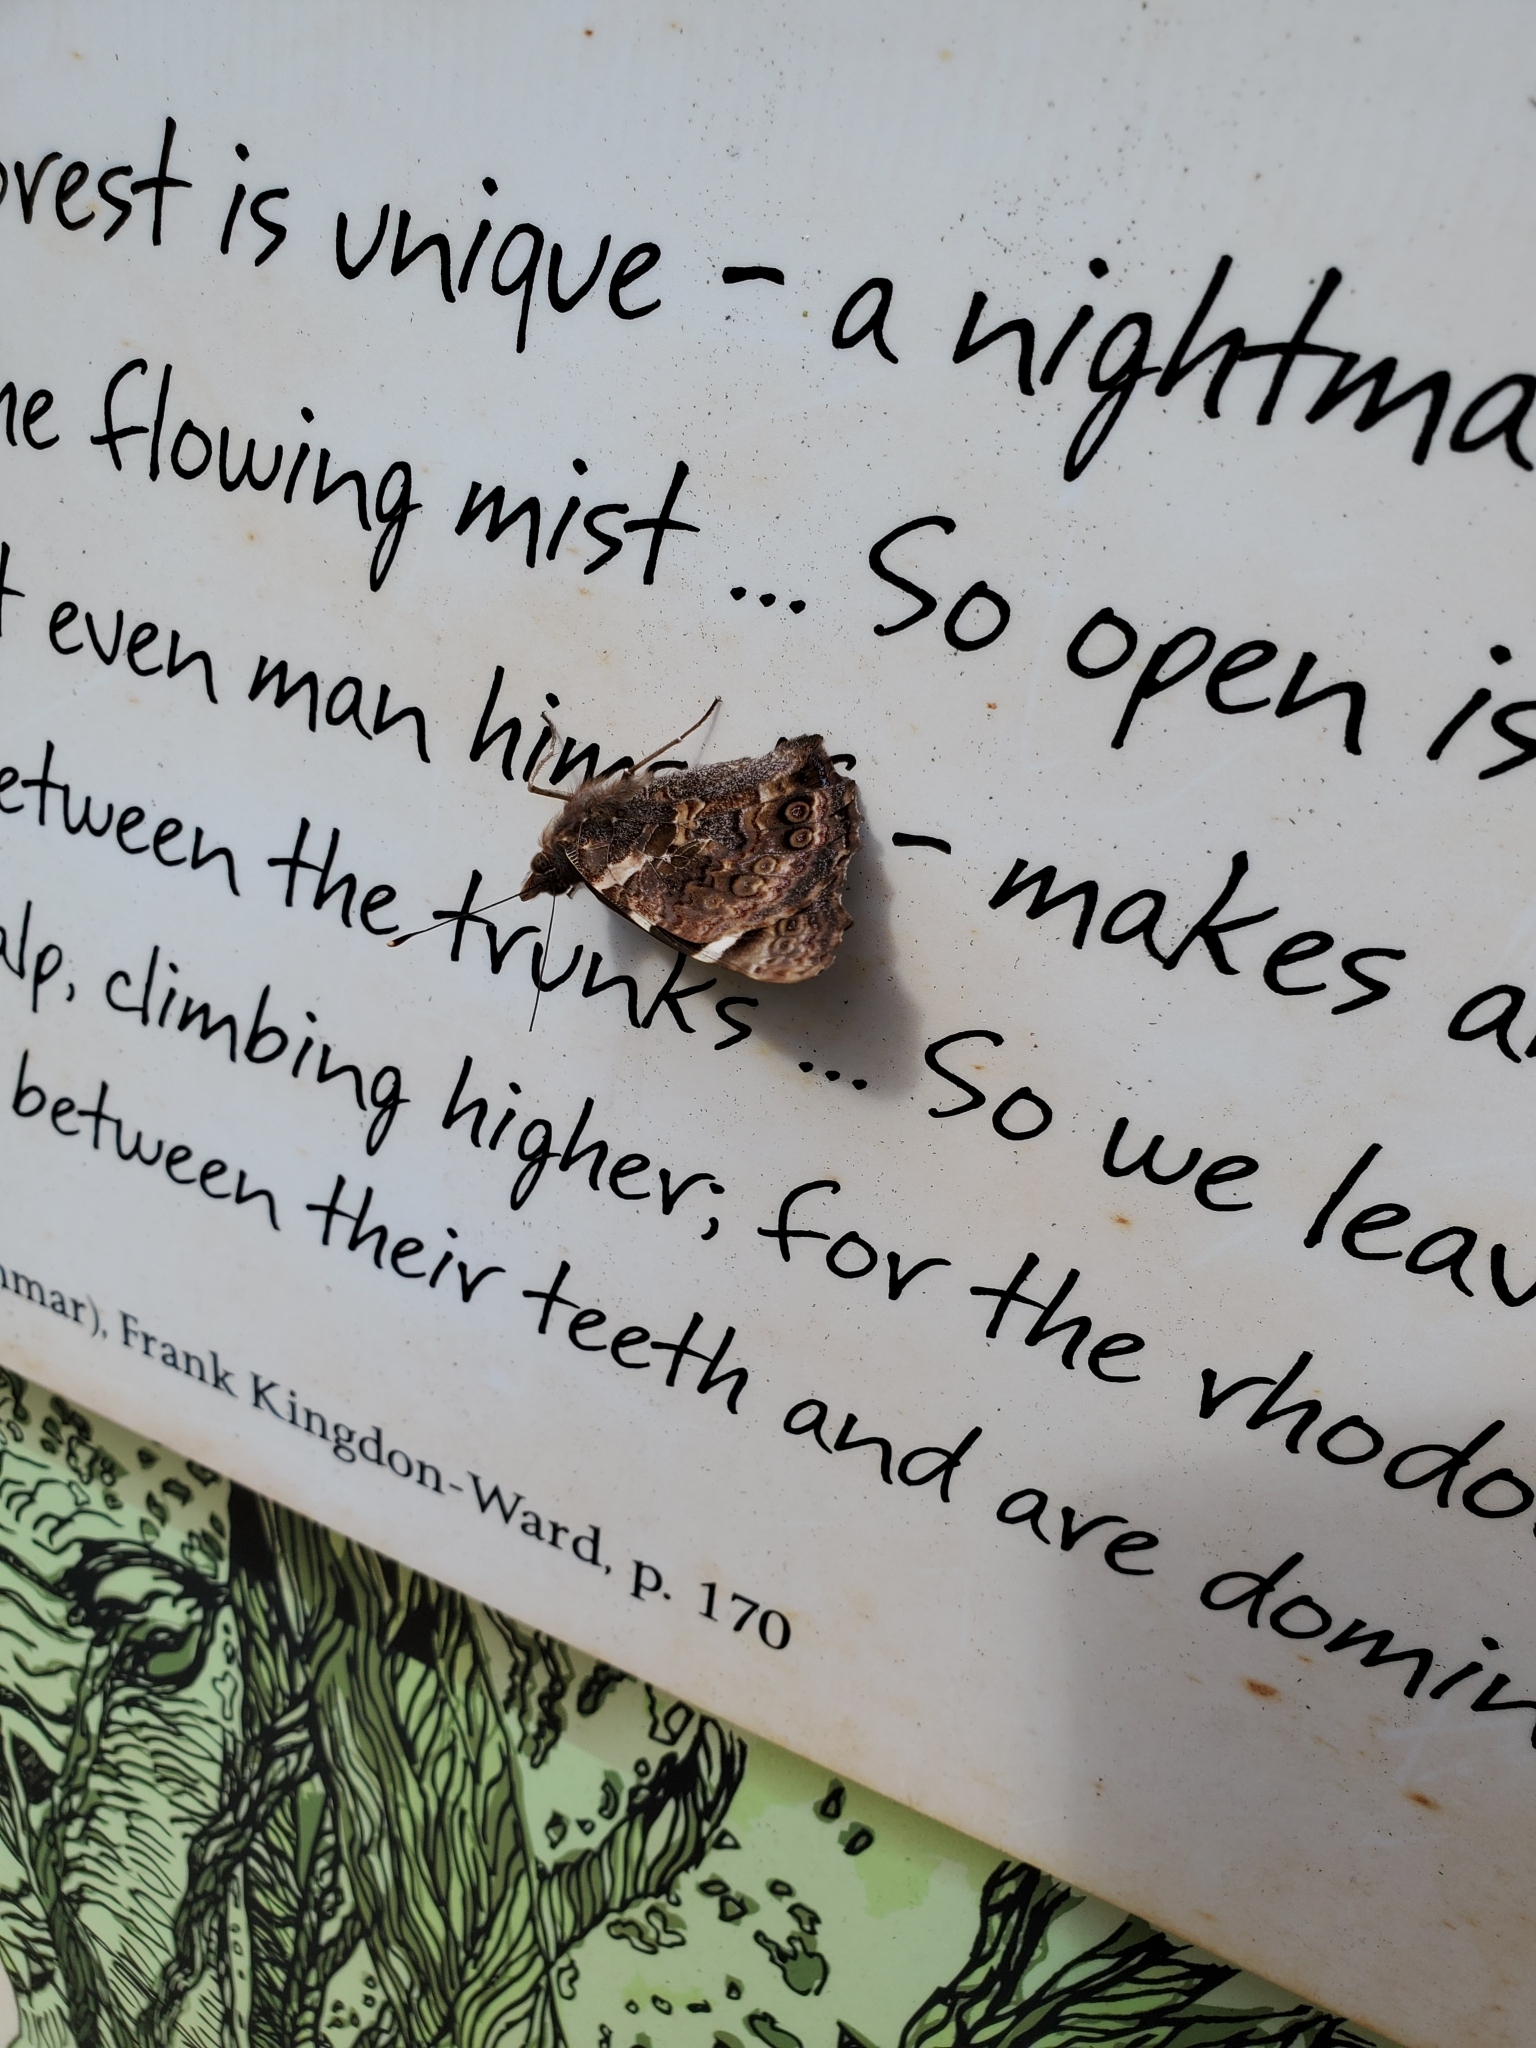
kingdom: Animalia
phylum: Arthropoda
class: Insecta
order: Lepidoptera
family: Nymphalidae
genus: Vanessa
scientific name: Vanessa gonerilla
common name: New zealand red admiral
